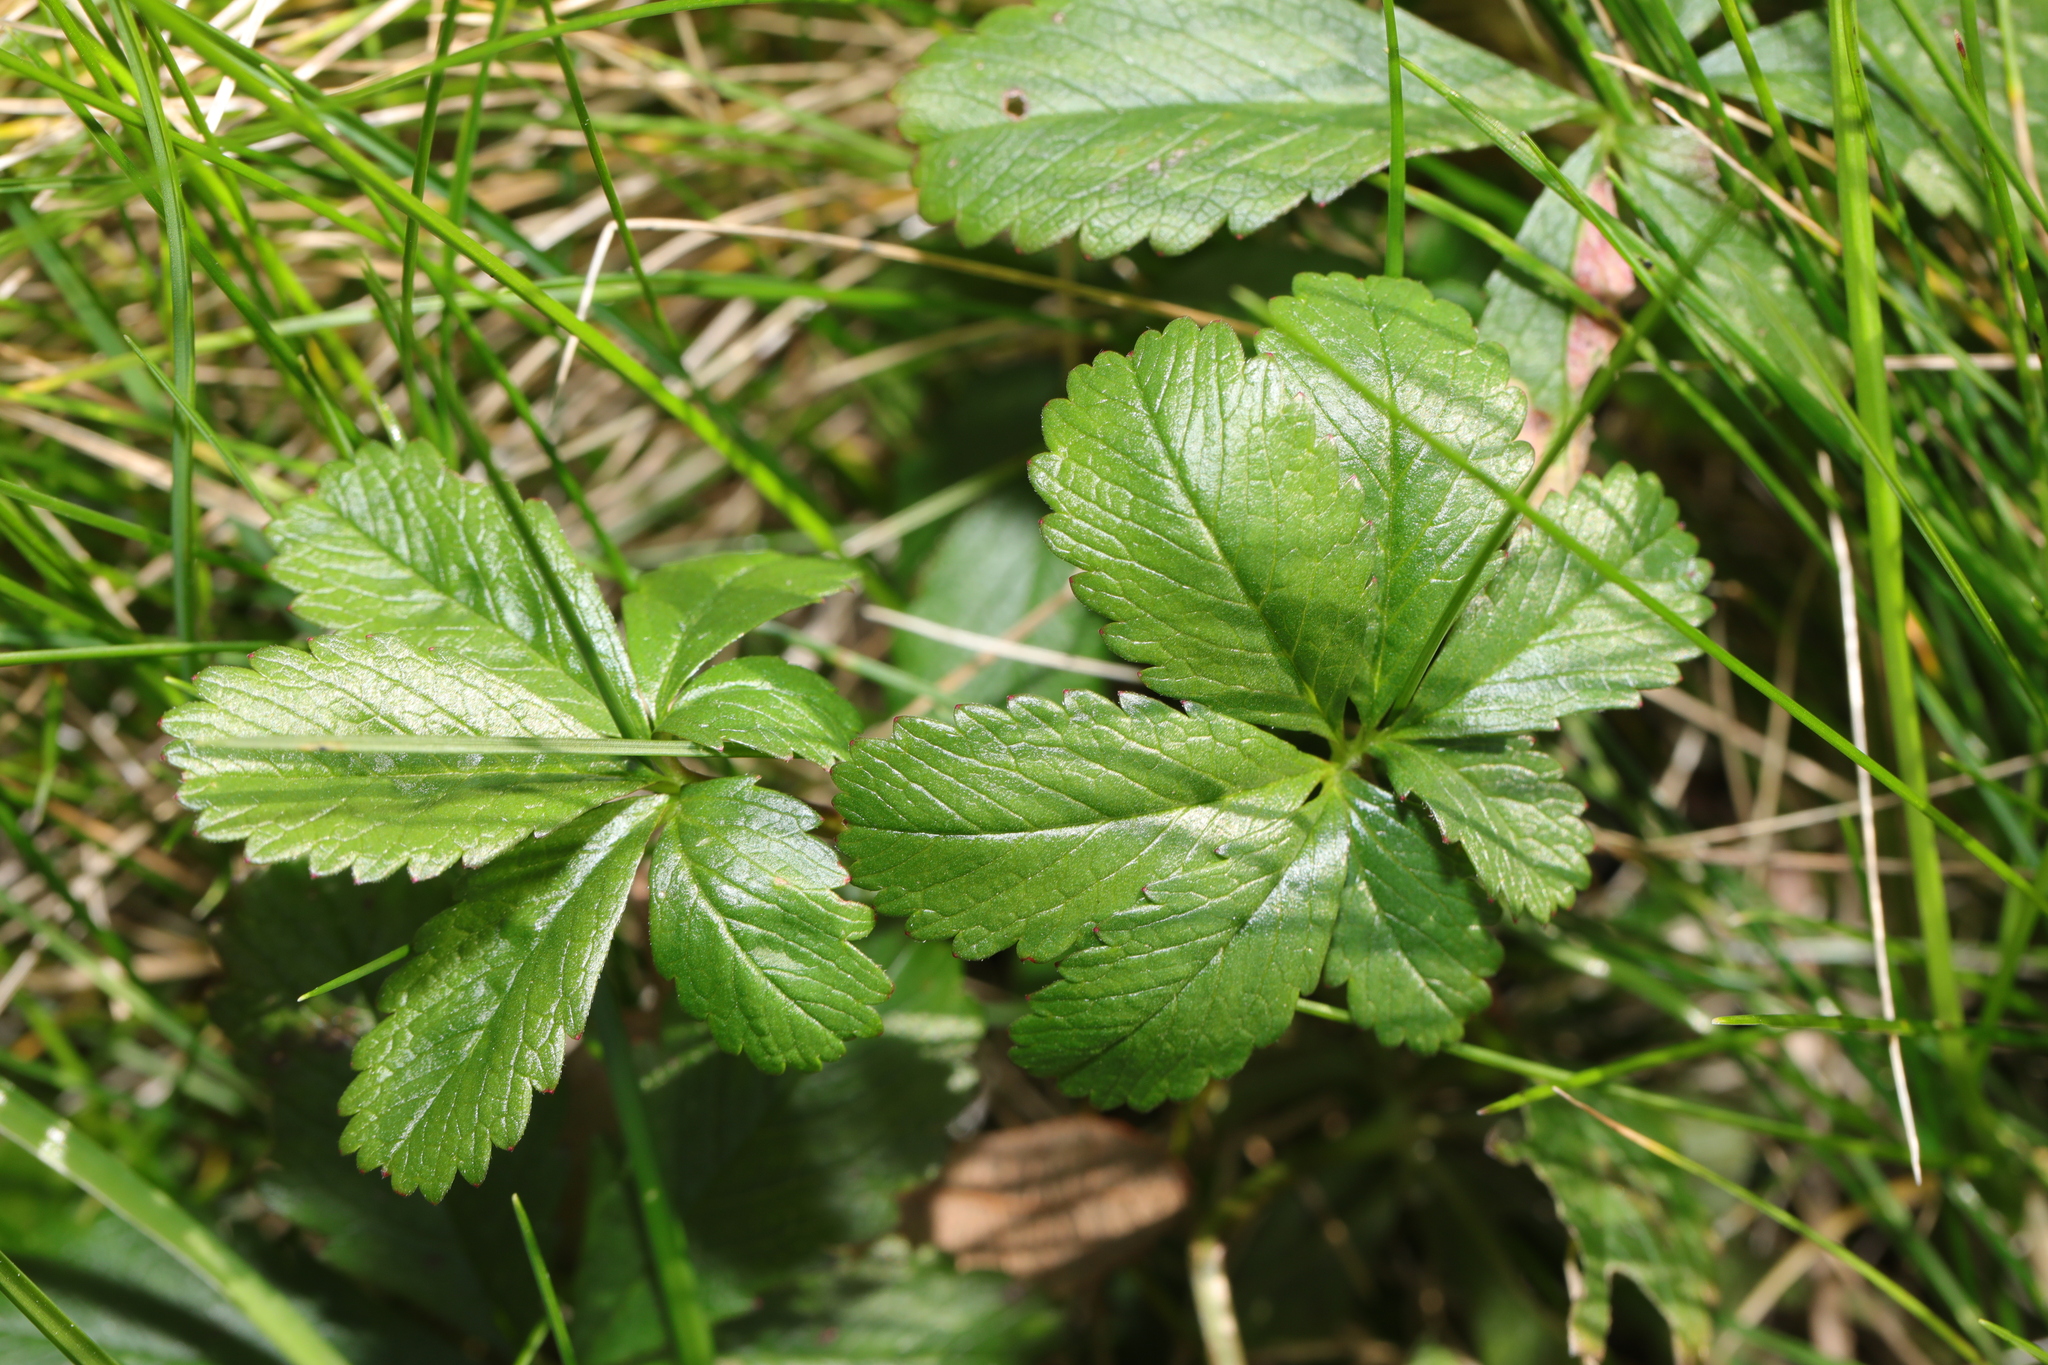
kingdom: Plantae
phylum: Tracheophyta
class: Magnoliopsida
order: Rosales
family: Rosaceae
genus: Potentilla
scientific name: Potentilla reptans
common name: Creeping cinquefoil
